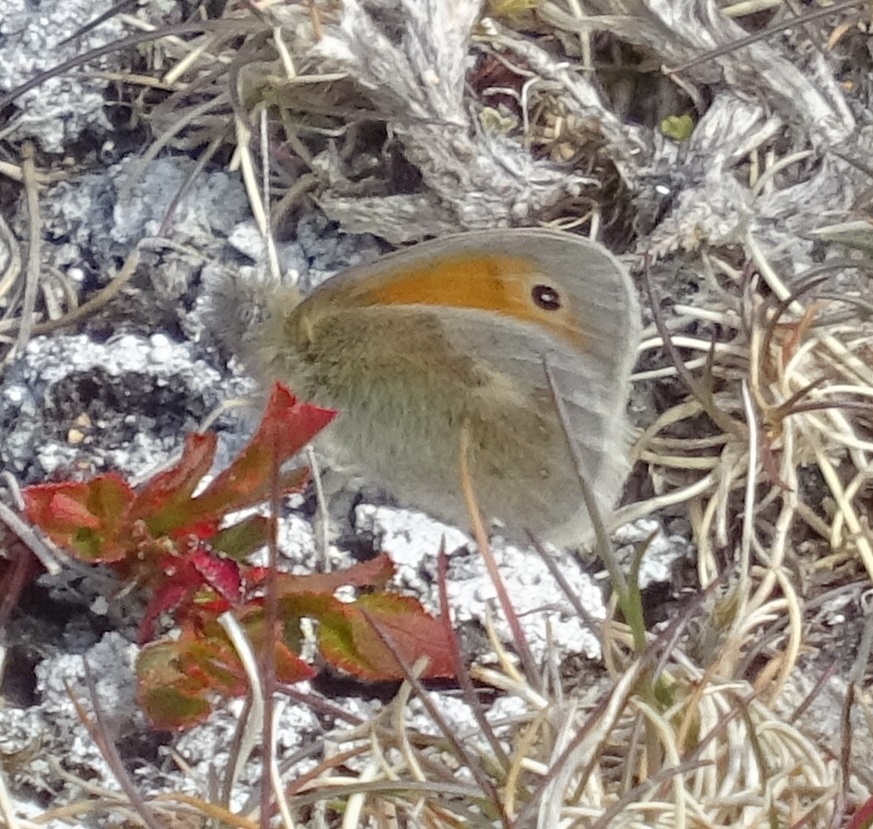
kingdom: Animalia
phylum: Arthropoda
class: Insecta
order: Lepidoptera
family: Nymphalidae
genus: Coenonympha
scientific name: Coenonympha pamphilus
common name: Small heath
